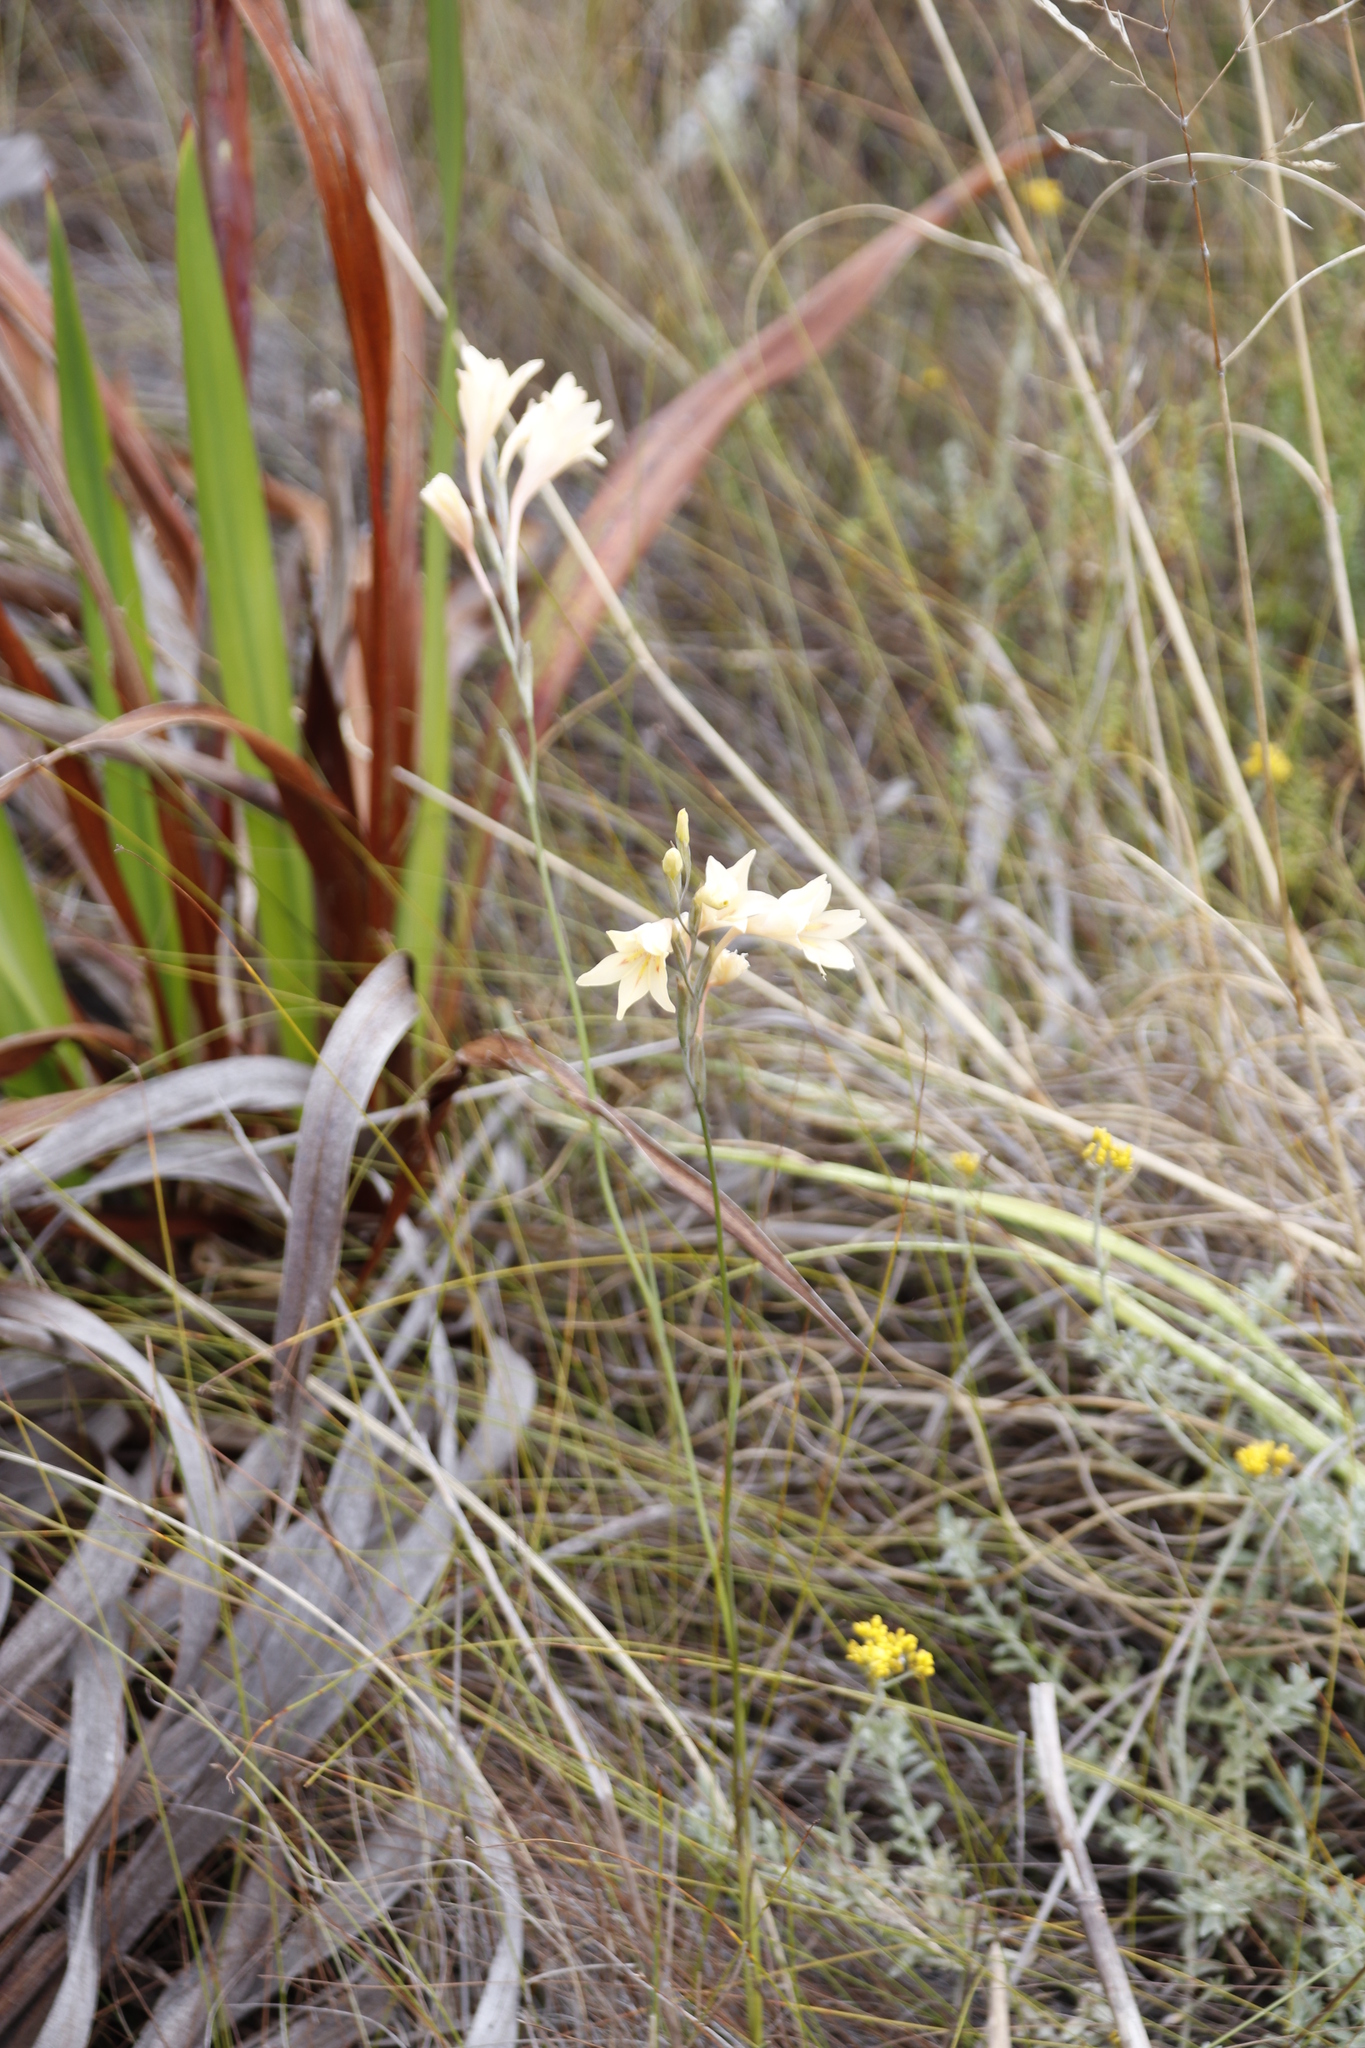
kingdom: Plantae
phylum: Tracheophyta
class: Liliopsida
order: Asparagales
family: Iridaceae
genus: Gladiolus
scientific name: Gladiolus monticola
